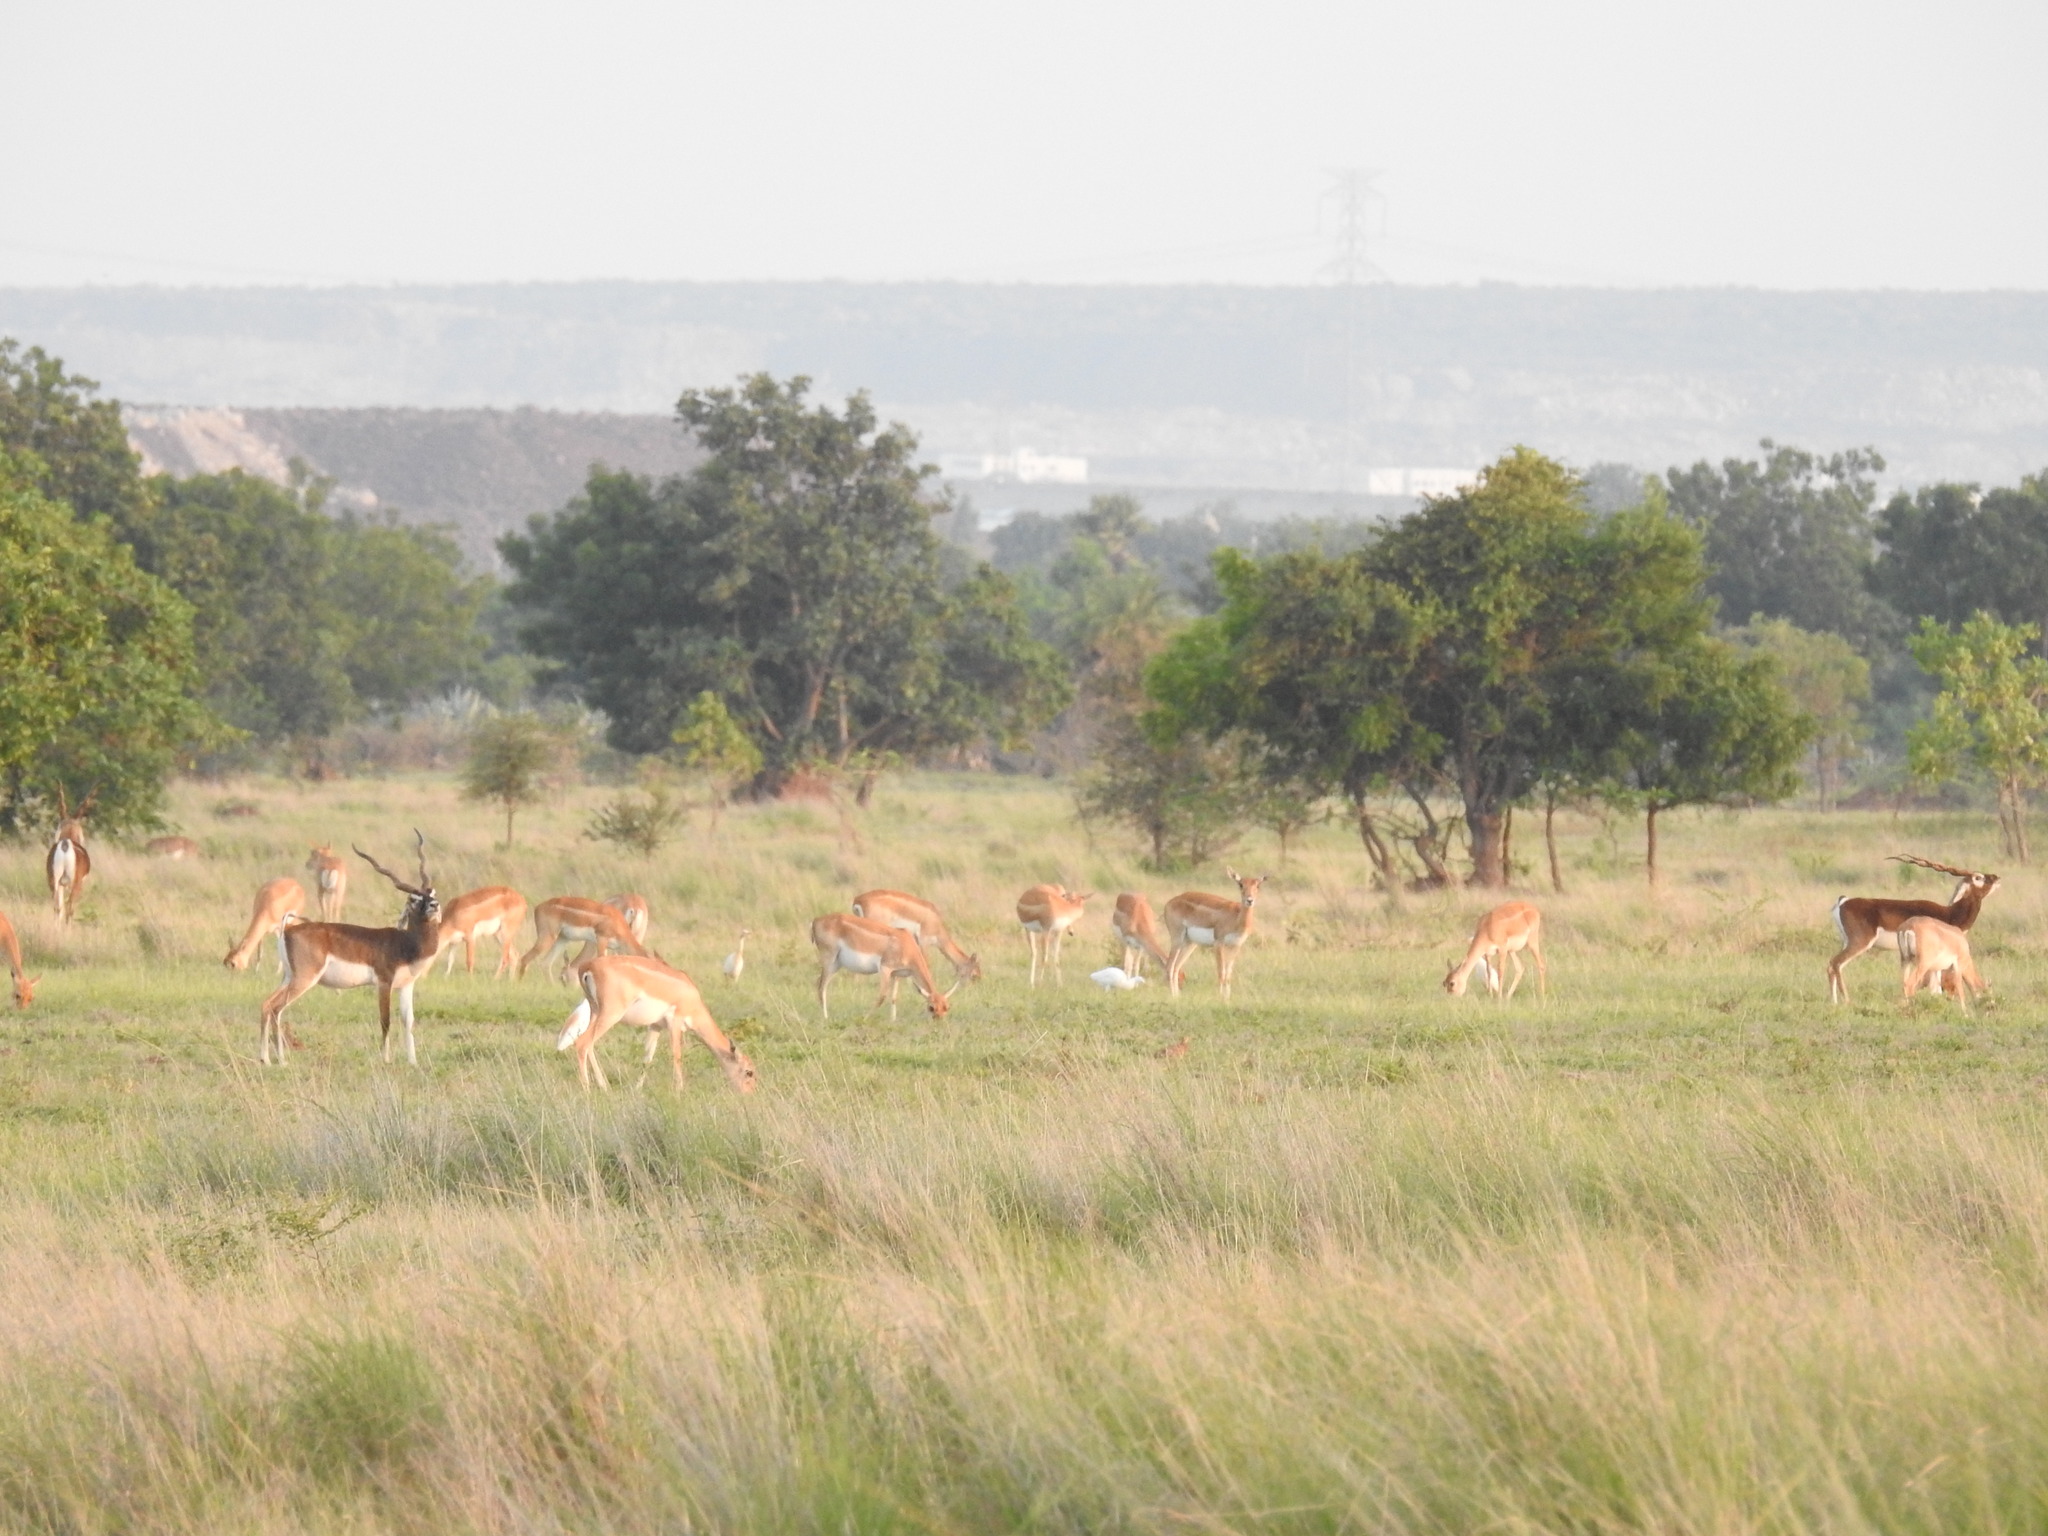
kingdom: Animalia
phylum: Chordata
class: Mammalia
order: Artiodactyla
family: Bovidae
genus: Antilope
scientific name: Antilope cervicapra
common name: Blackbuck
